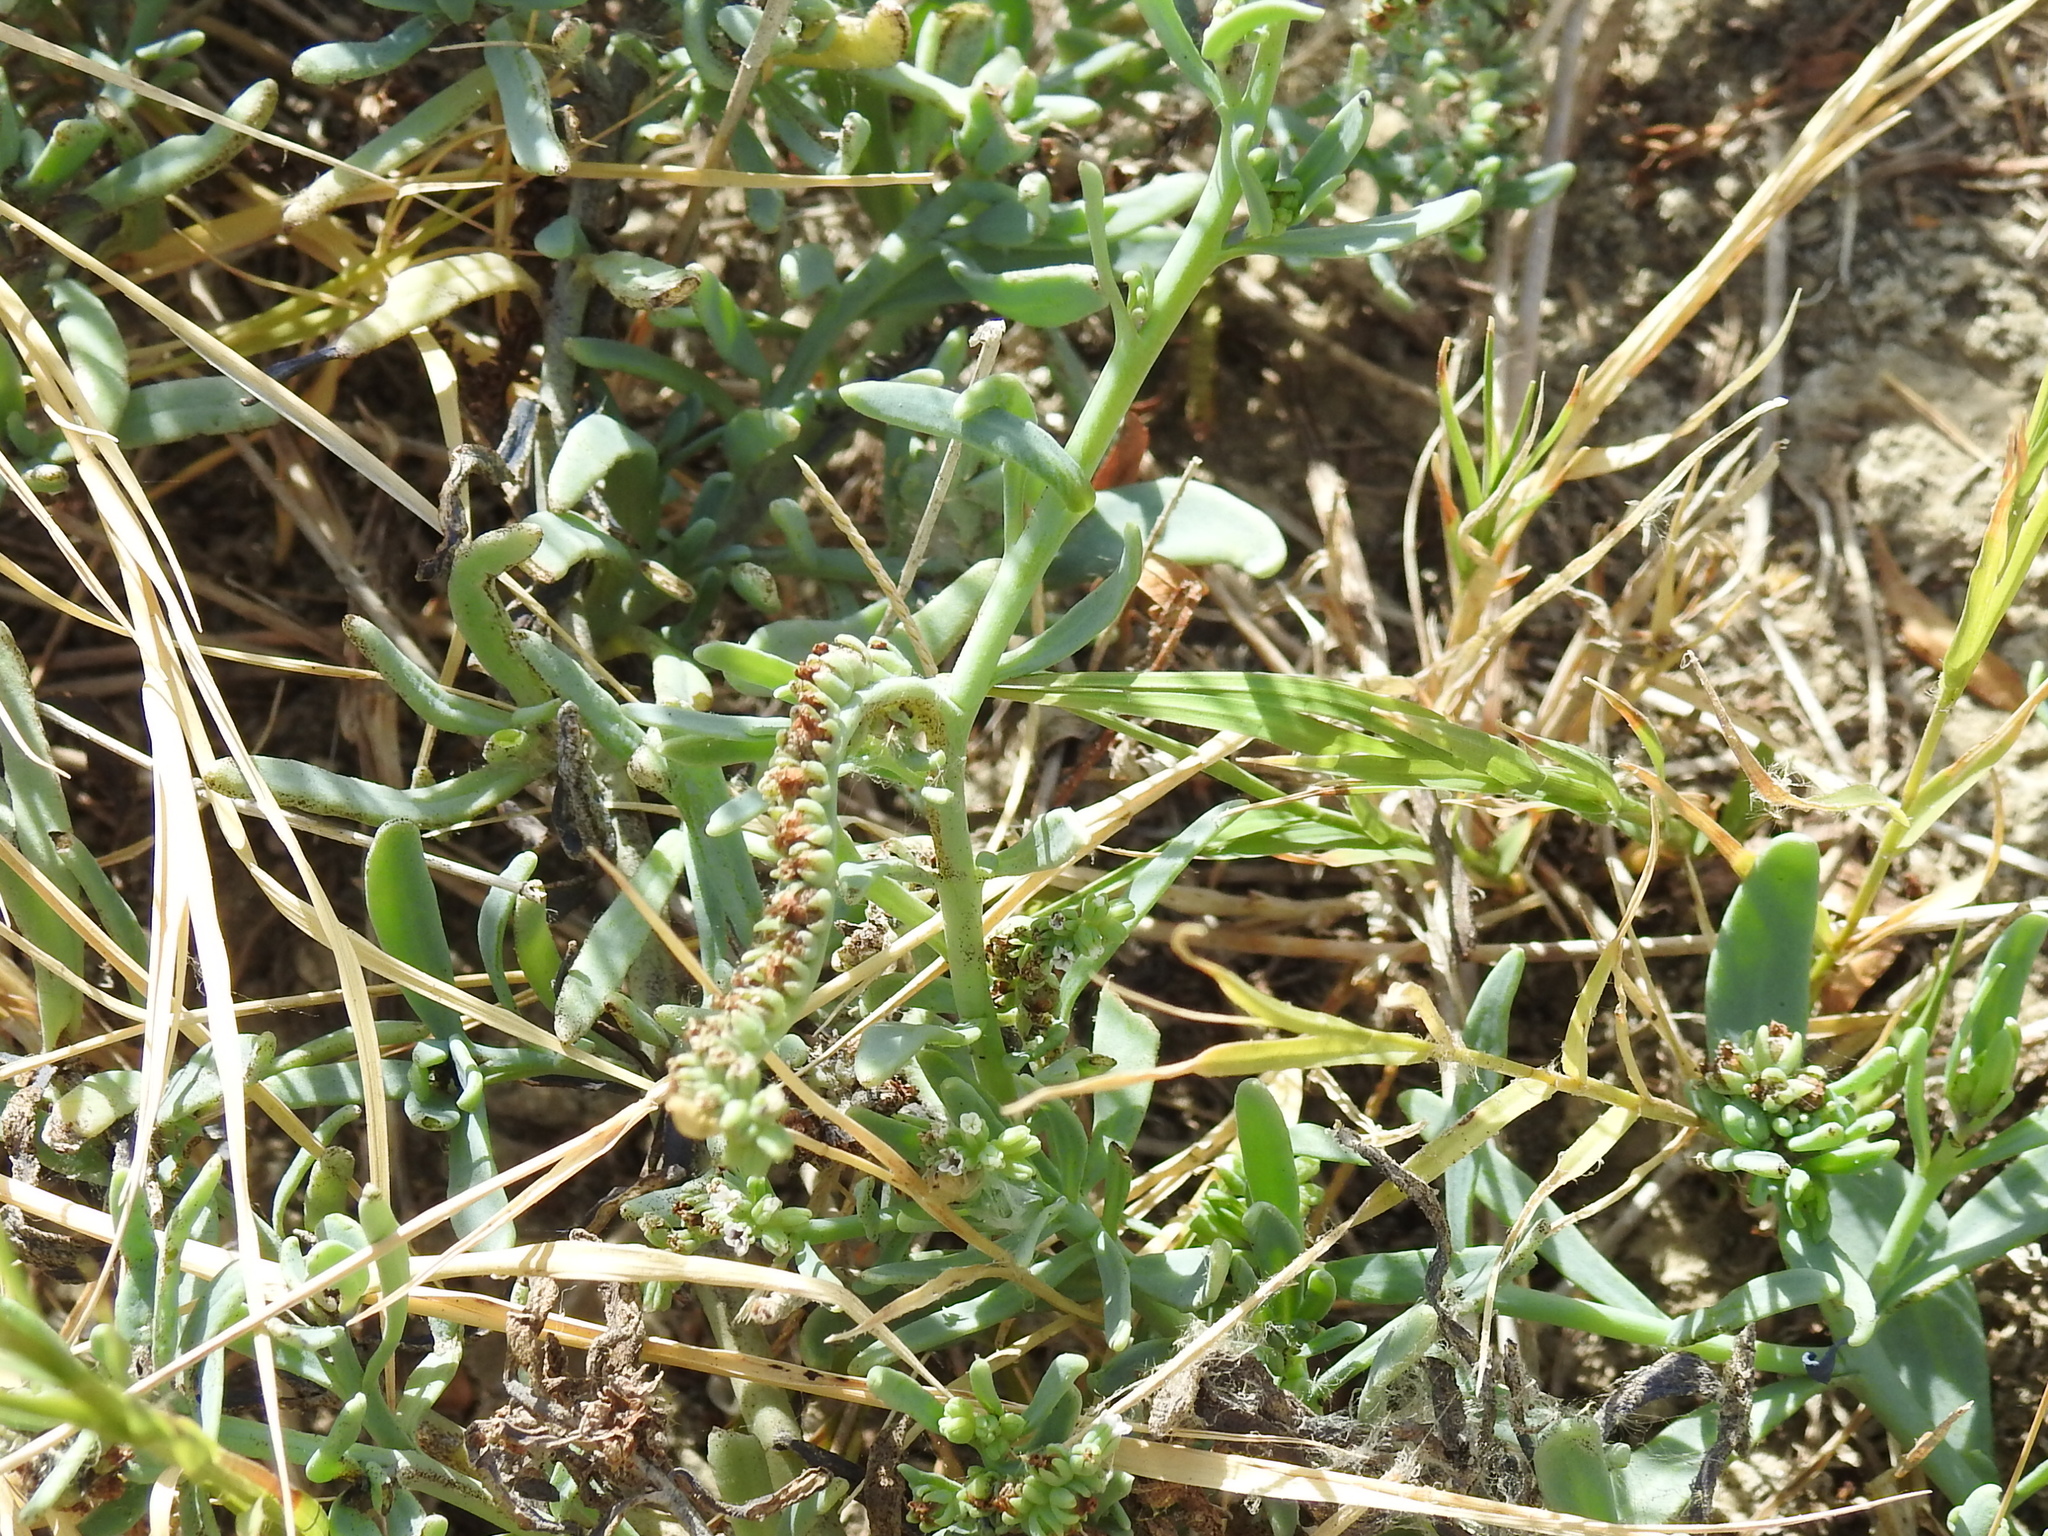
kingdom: Plantae
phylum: Tracheophyta
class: Magnoliopsida
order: Boraginales
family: Heliotropiaceae
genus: Heliotropium
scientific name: Heliotropium curassavicum
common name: Seaside heliotrope
